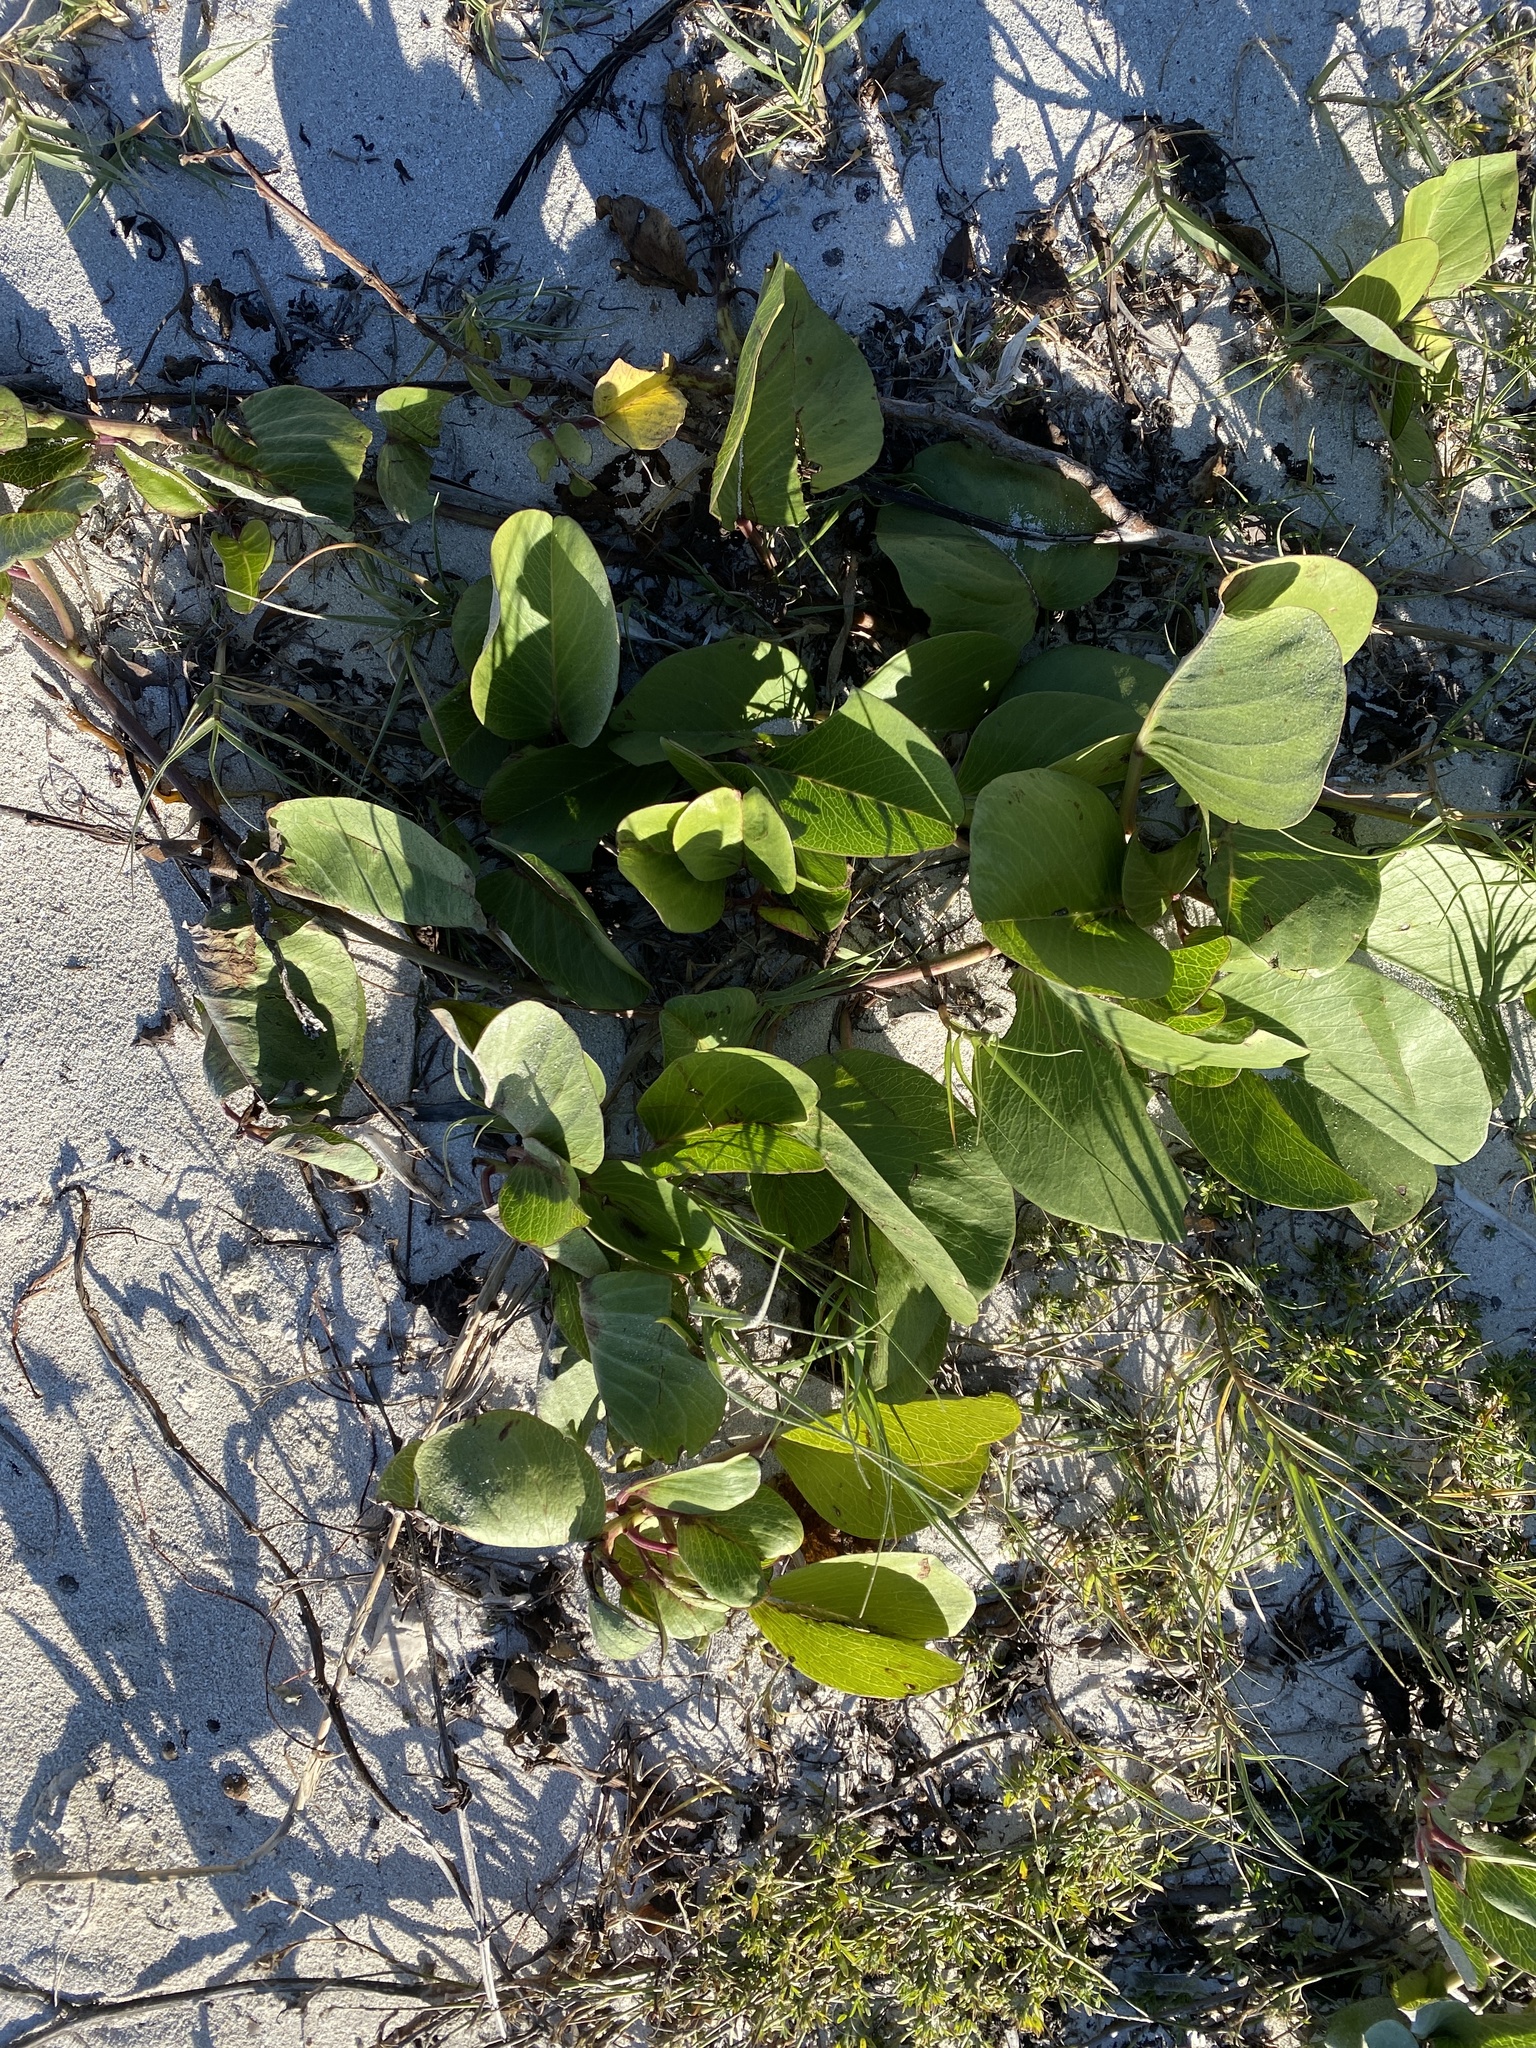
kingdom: Plantae
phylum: Tracheophyta
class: Magnoliopsida
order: Solanales
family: Convolvulaceae
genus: Ipomoea
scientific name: Ipomoea pes-caprae
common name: Beach morning glory
